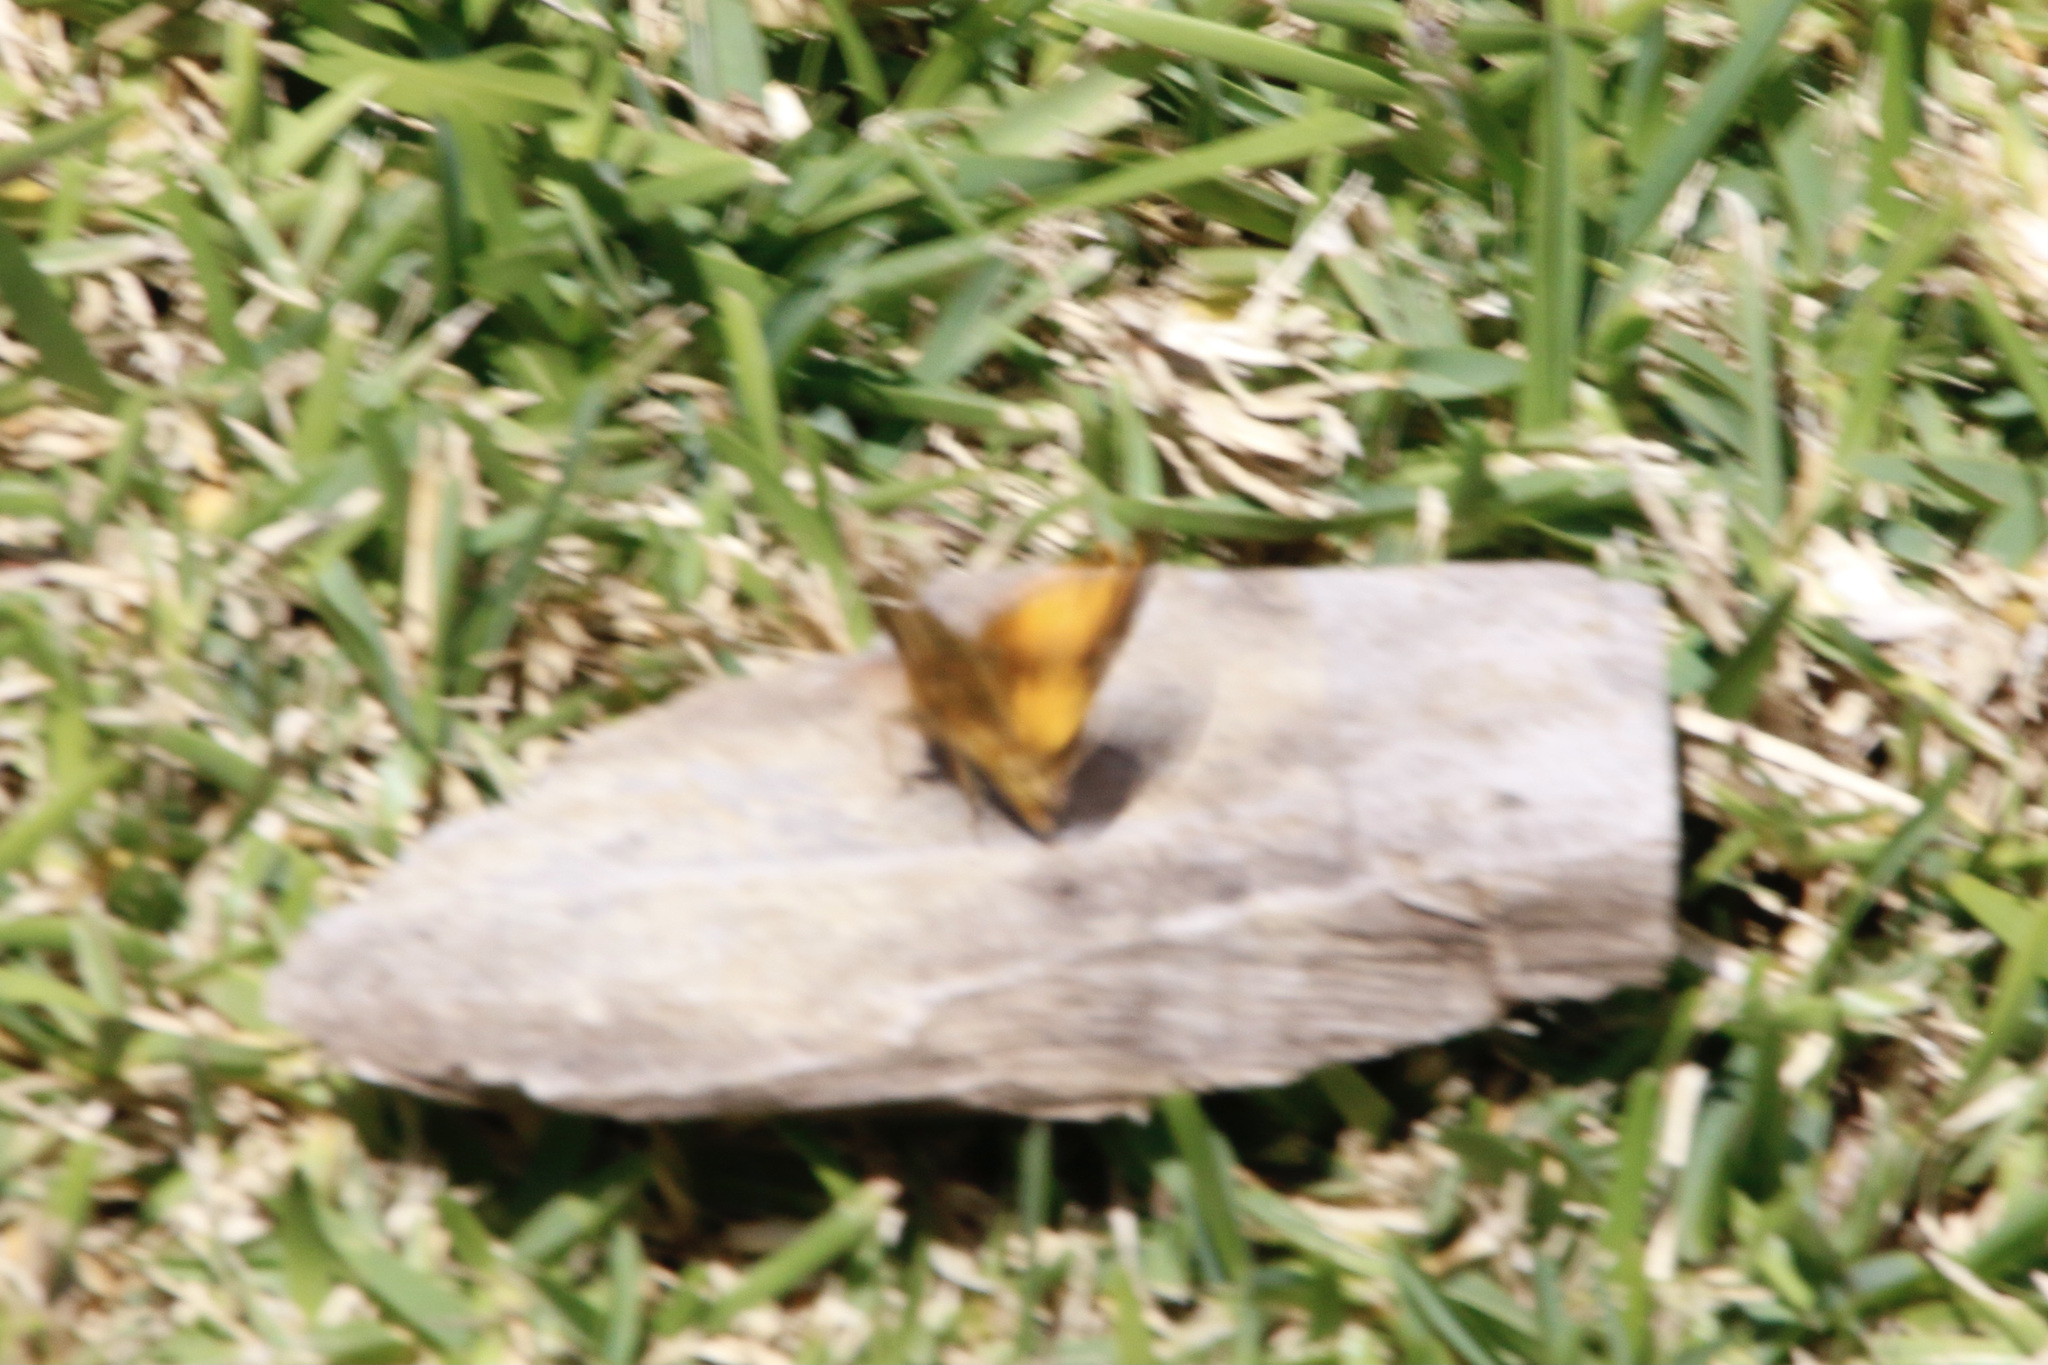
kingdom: Animalia
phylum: Arthropoda
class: Insecta
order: Lepidoptera
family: Hesperiidae
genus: Lon
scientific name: Lon zabulon
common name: Zabulon skipper
